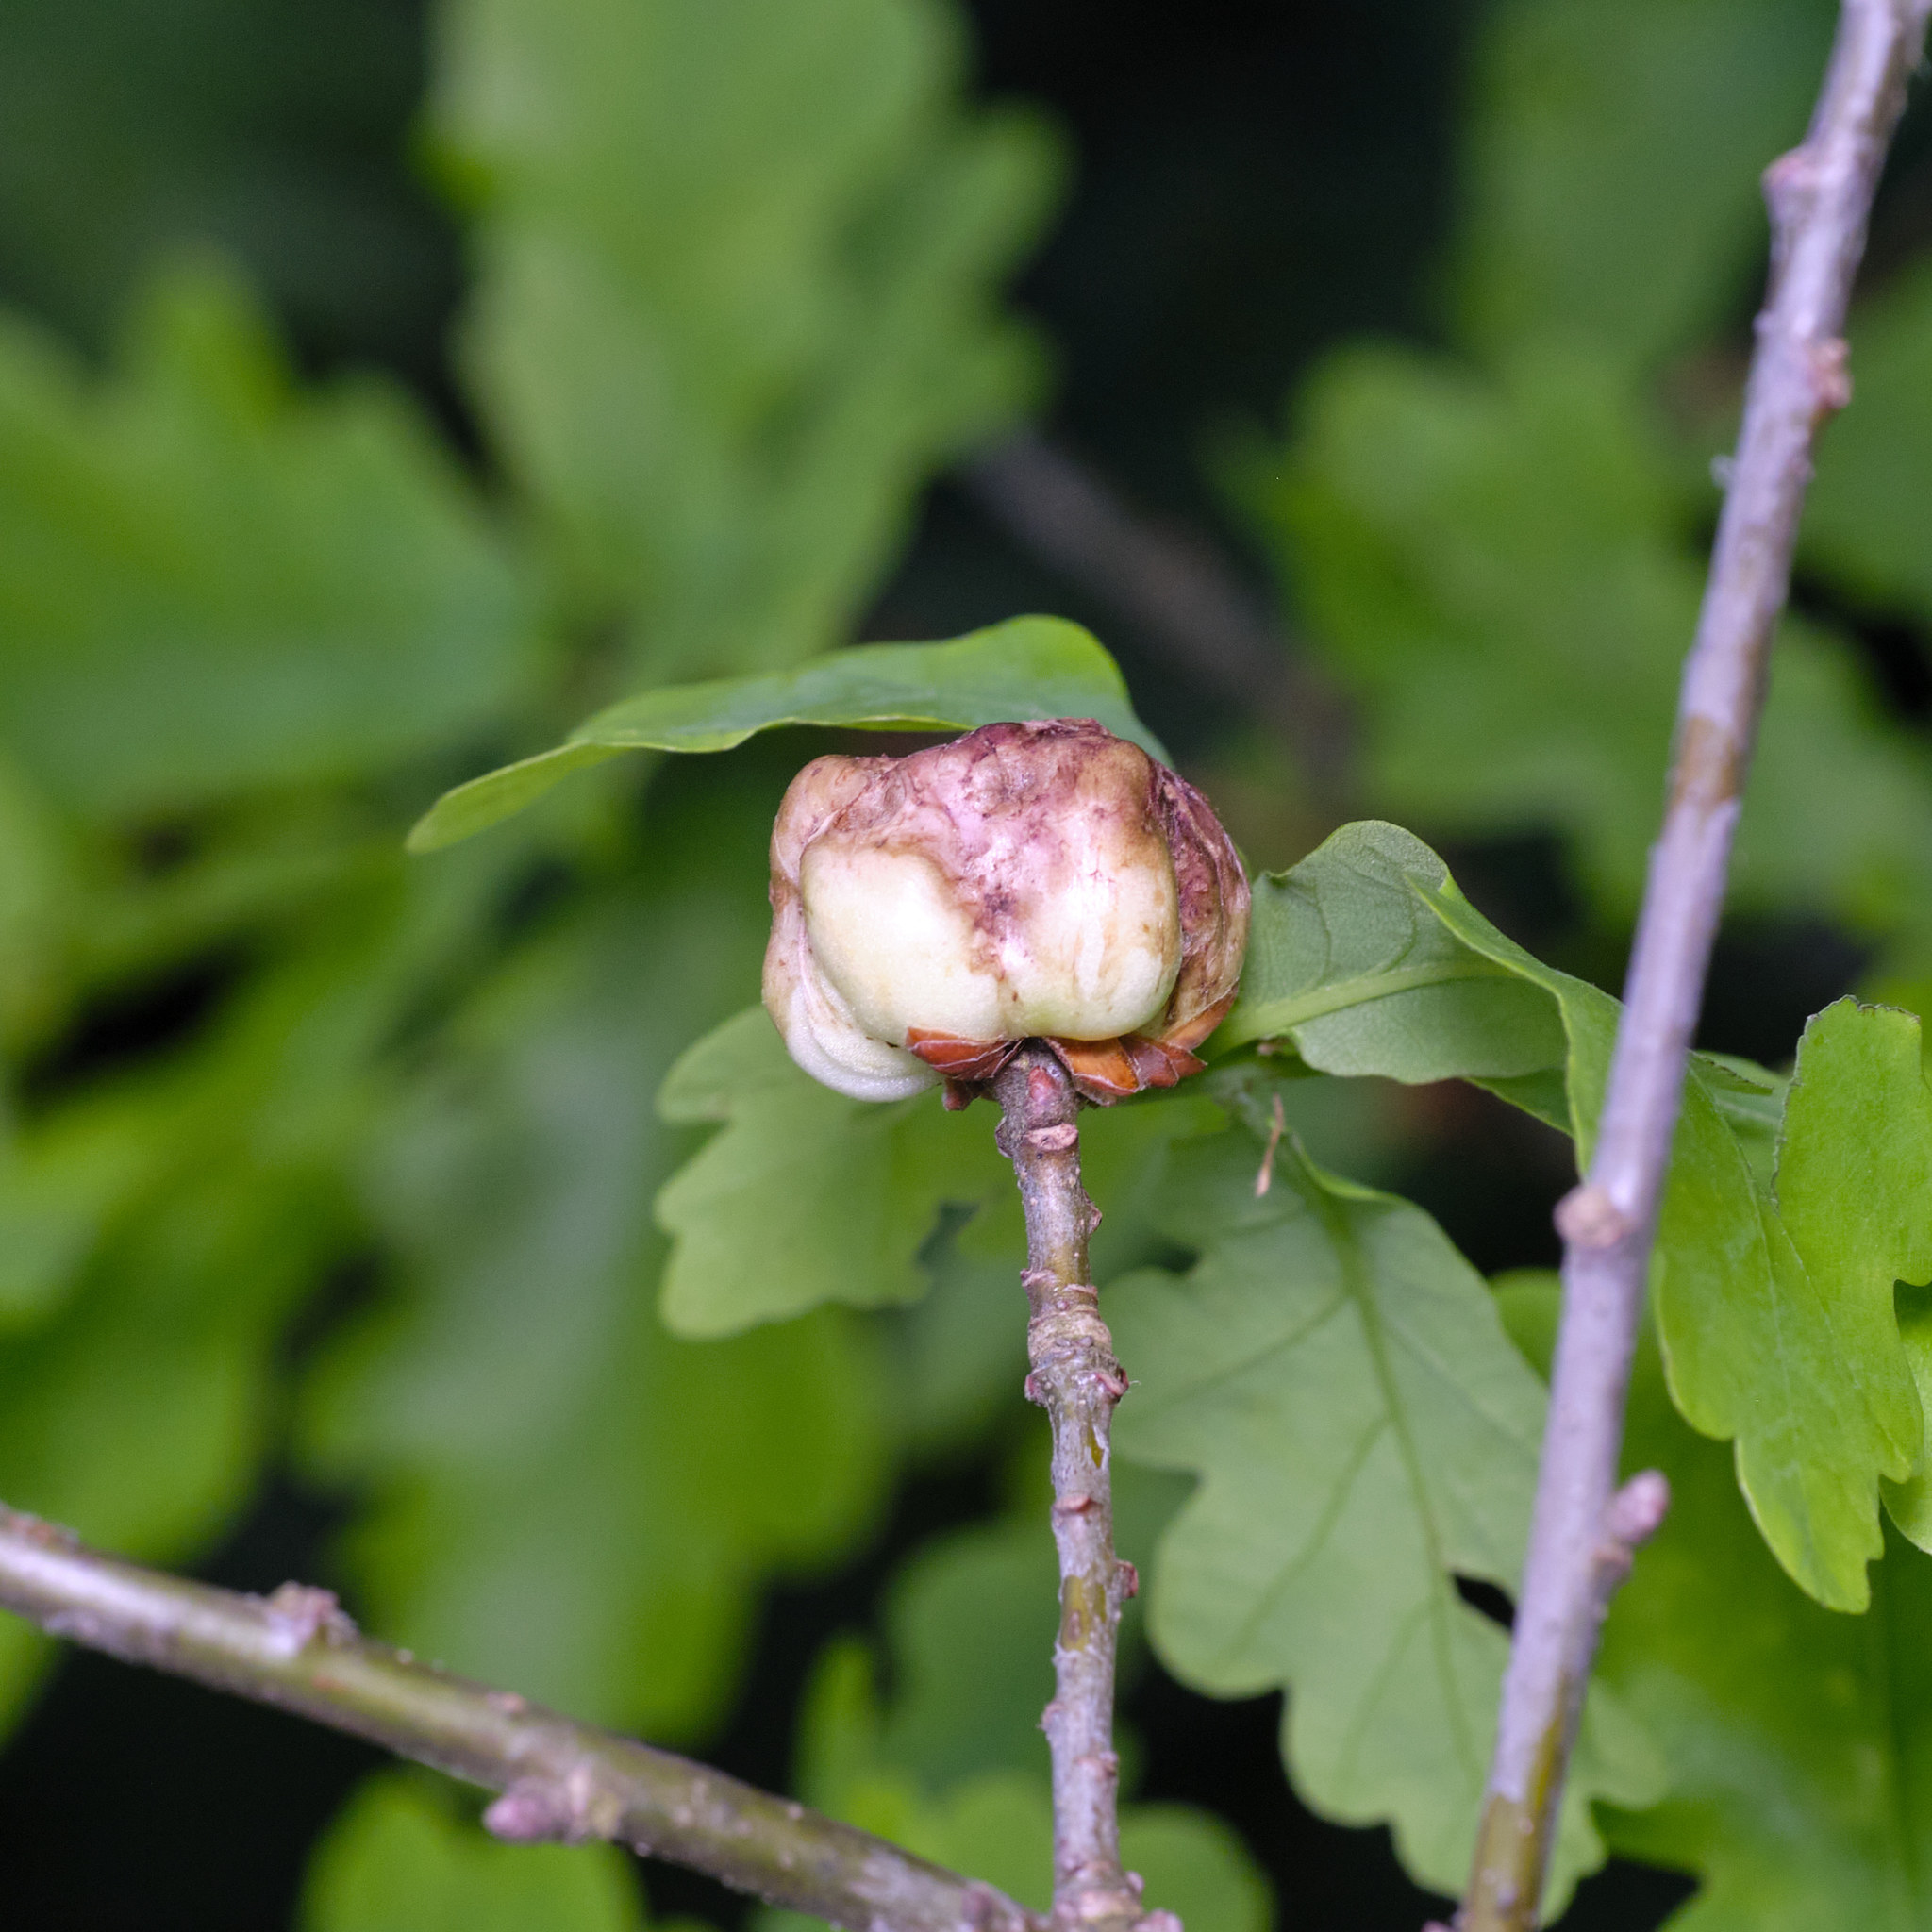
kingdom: Animalia
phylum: Arthropoda
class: Insecta
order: Hymenoptera
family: Cynipidae
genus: Biorhiza
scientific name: Biorhiza pallida
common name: Oak apple
